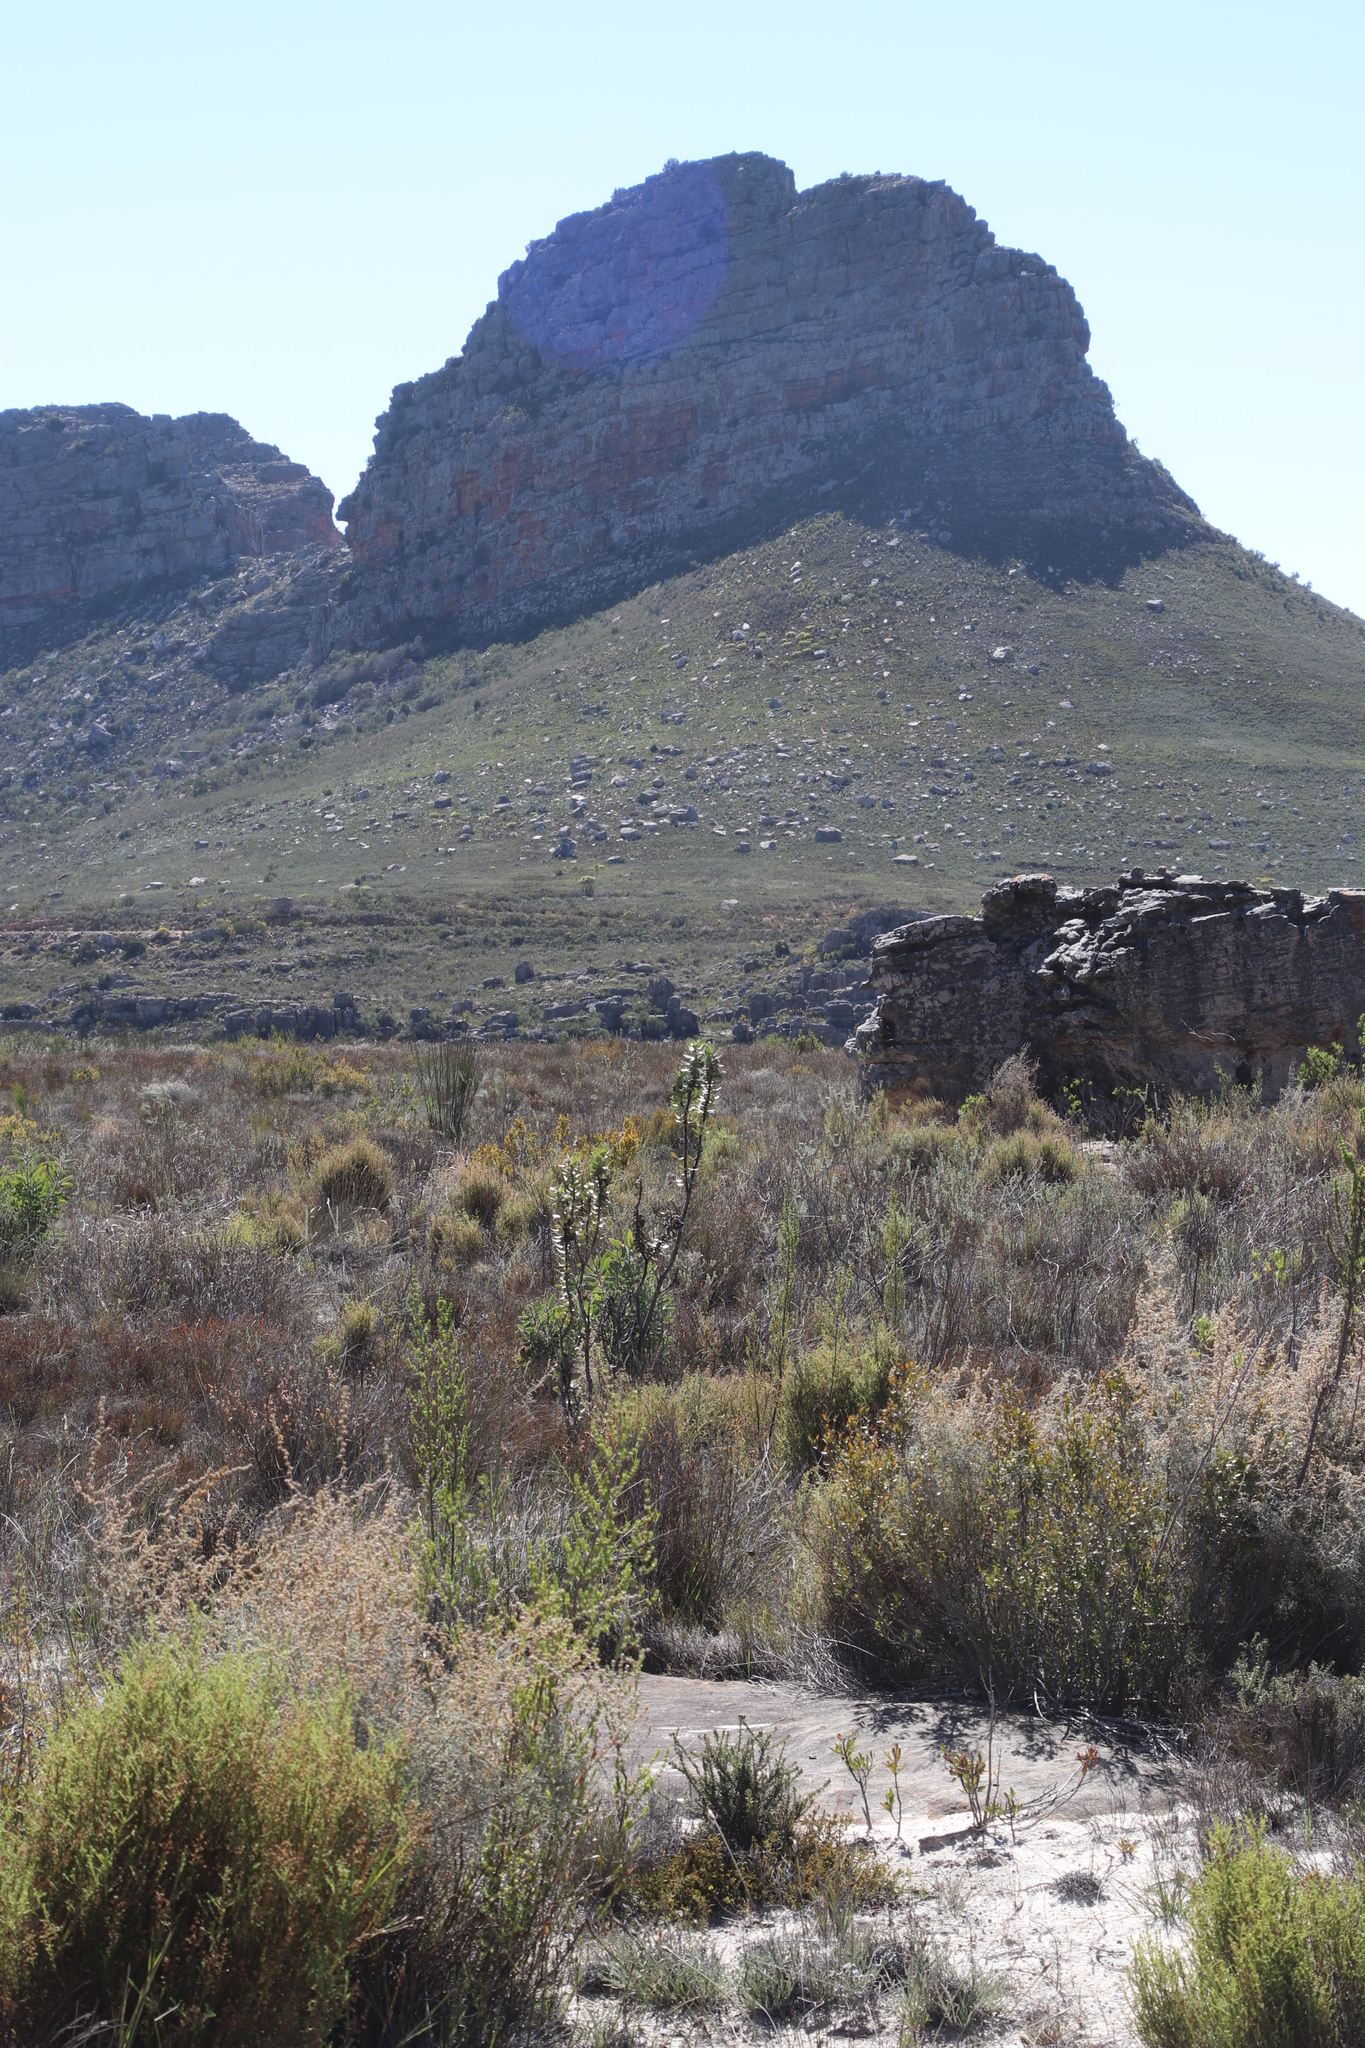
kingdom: Plantae
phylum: Tracheophyta
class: Magnoliopsida
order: Gentianales
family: Apocynaceae
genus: Gomphocarpus
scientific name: Gomphocarpus cancellatus
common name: Wild cotton
